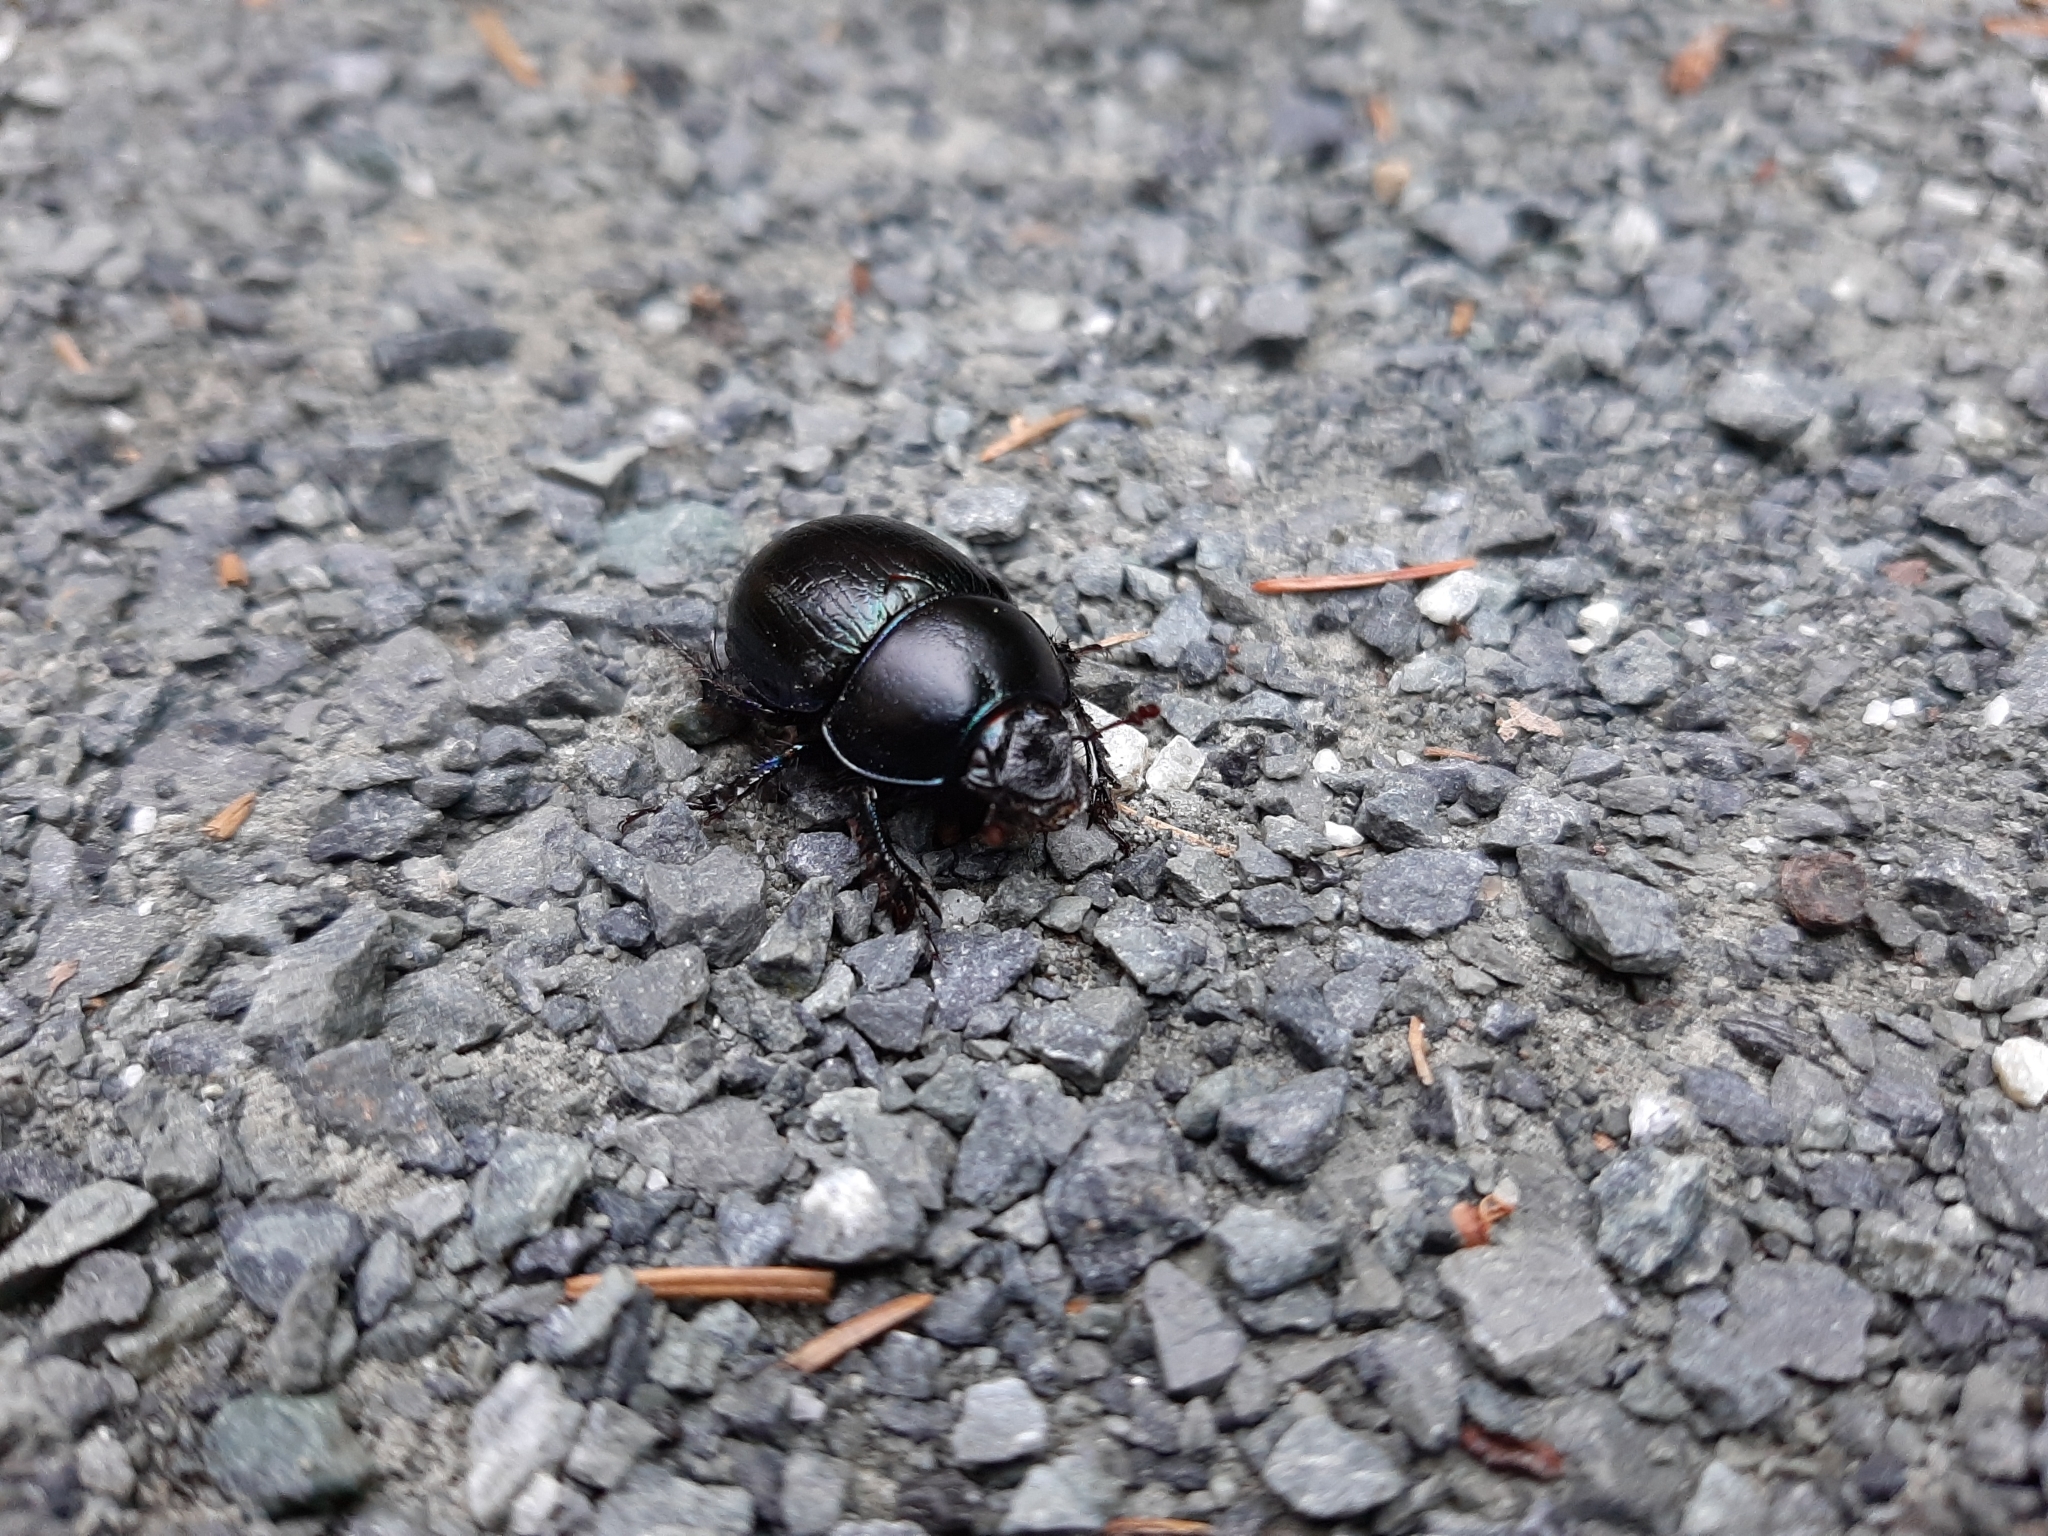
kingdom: Animalia
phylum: Arthropoda
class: Insecta
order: Coleoptera
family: Geotrupidae
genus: Anoplotrupes
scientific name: Anoplotrupes stercorosus
